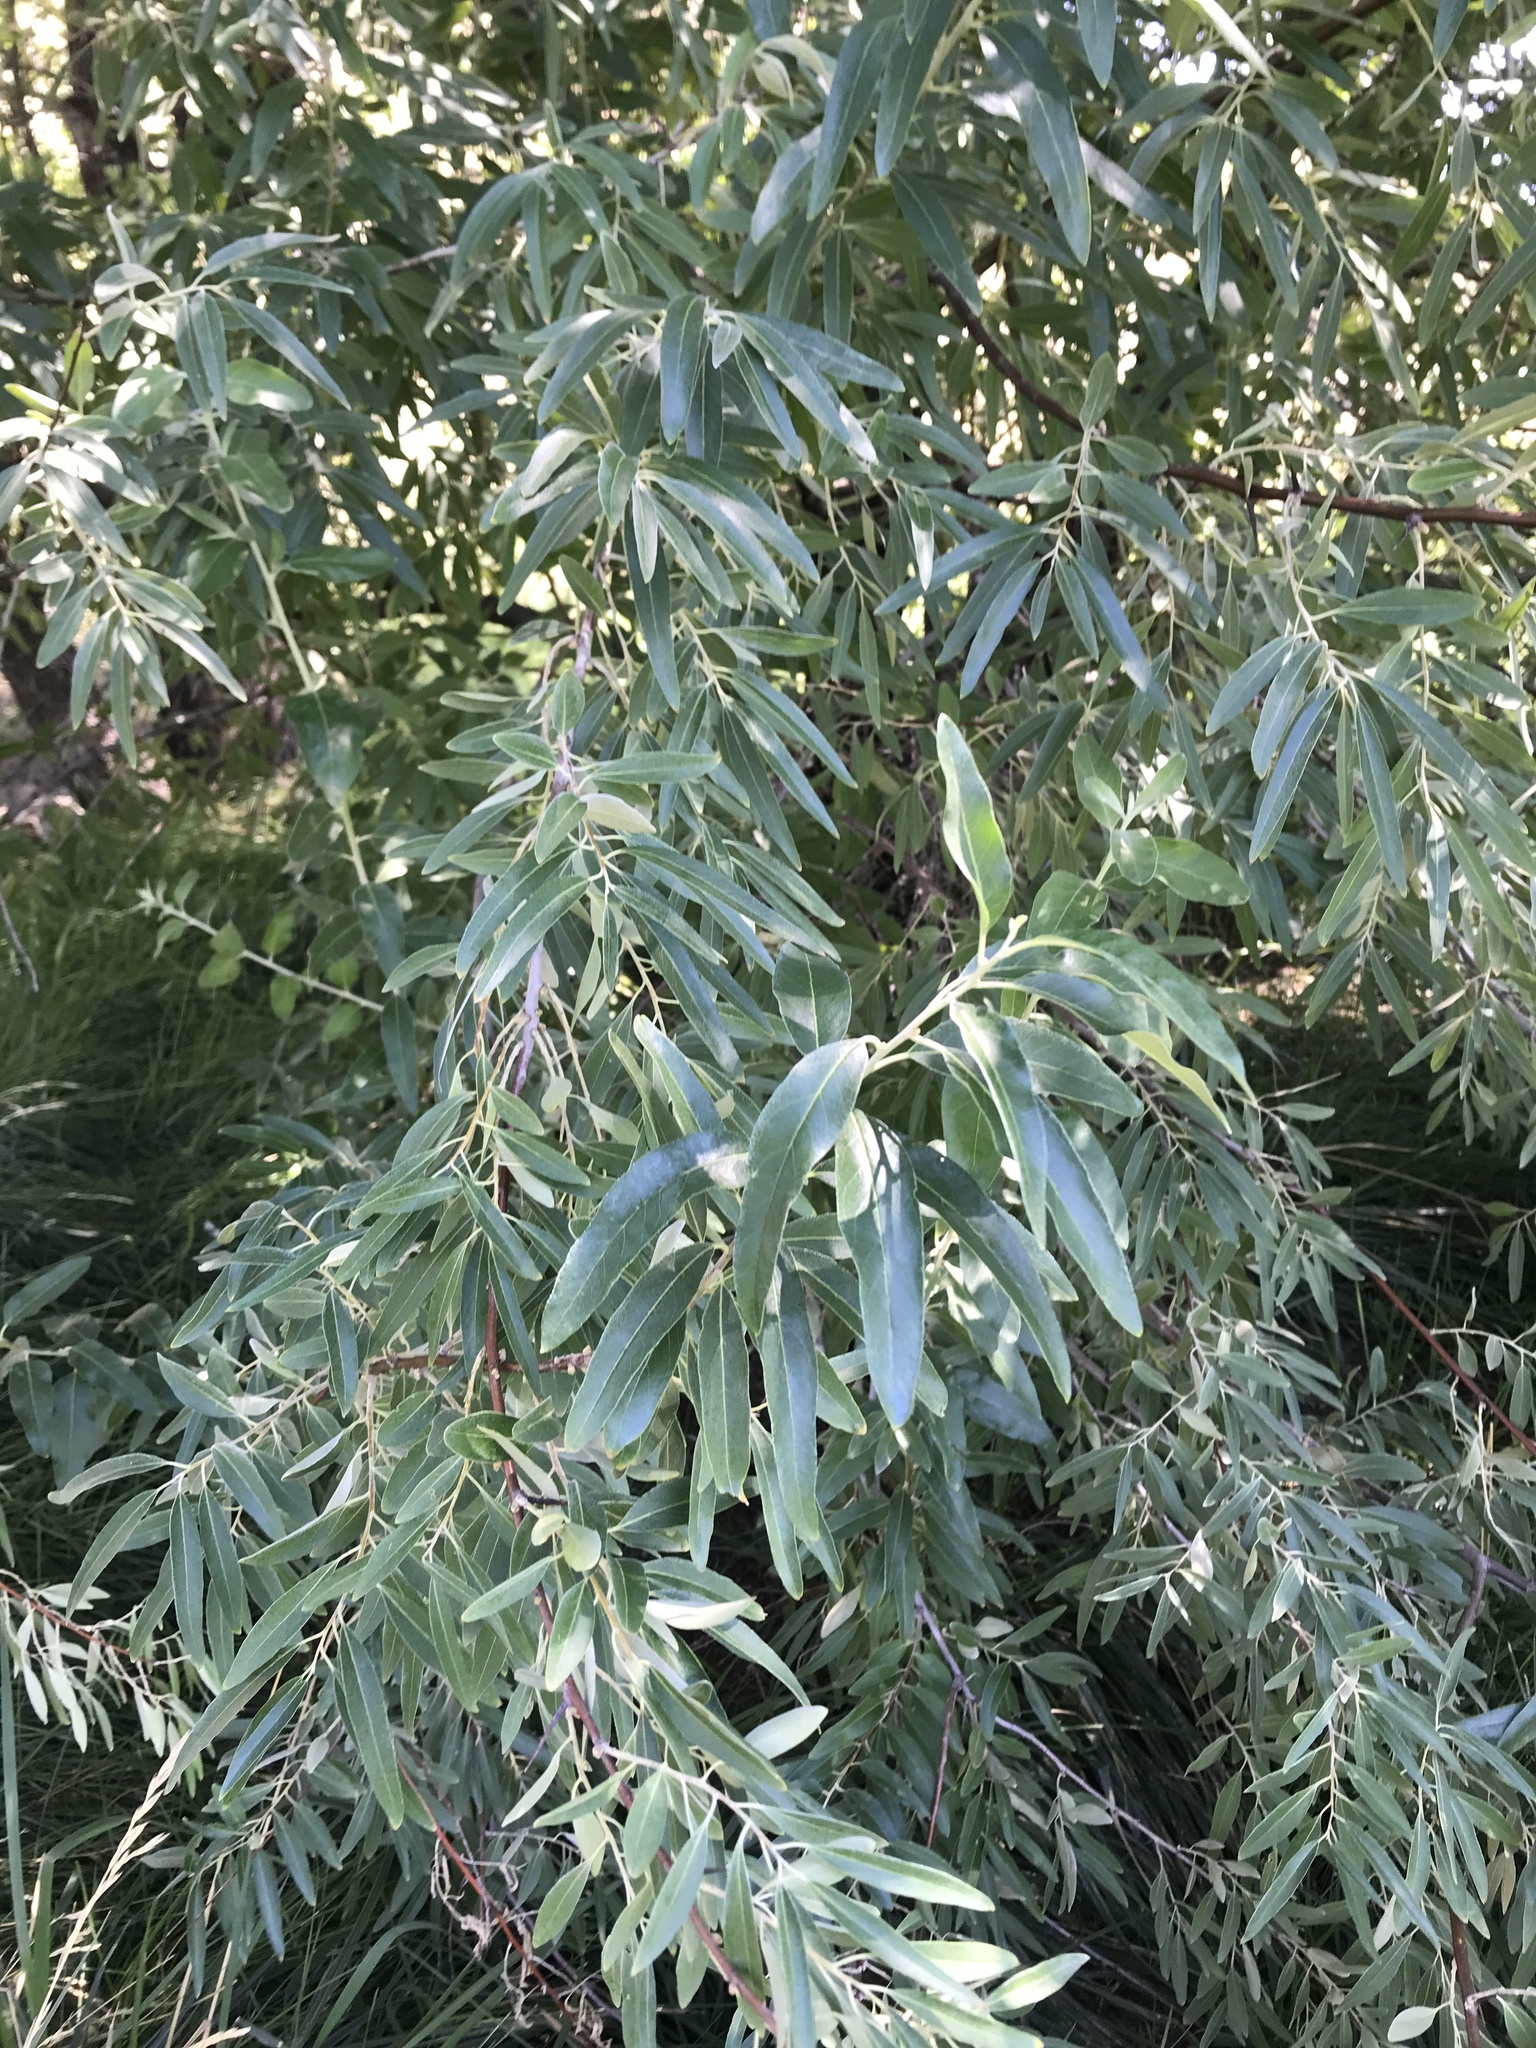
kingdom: Plantae
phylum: Tracheophyta
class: Magnoliopsida
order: Rosales
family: Elaeagnaceae
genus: Elaeagnus
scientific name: Elaeagnus angustifolia
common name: Russian olive
